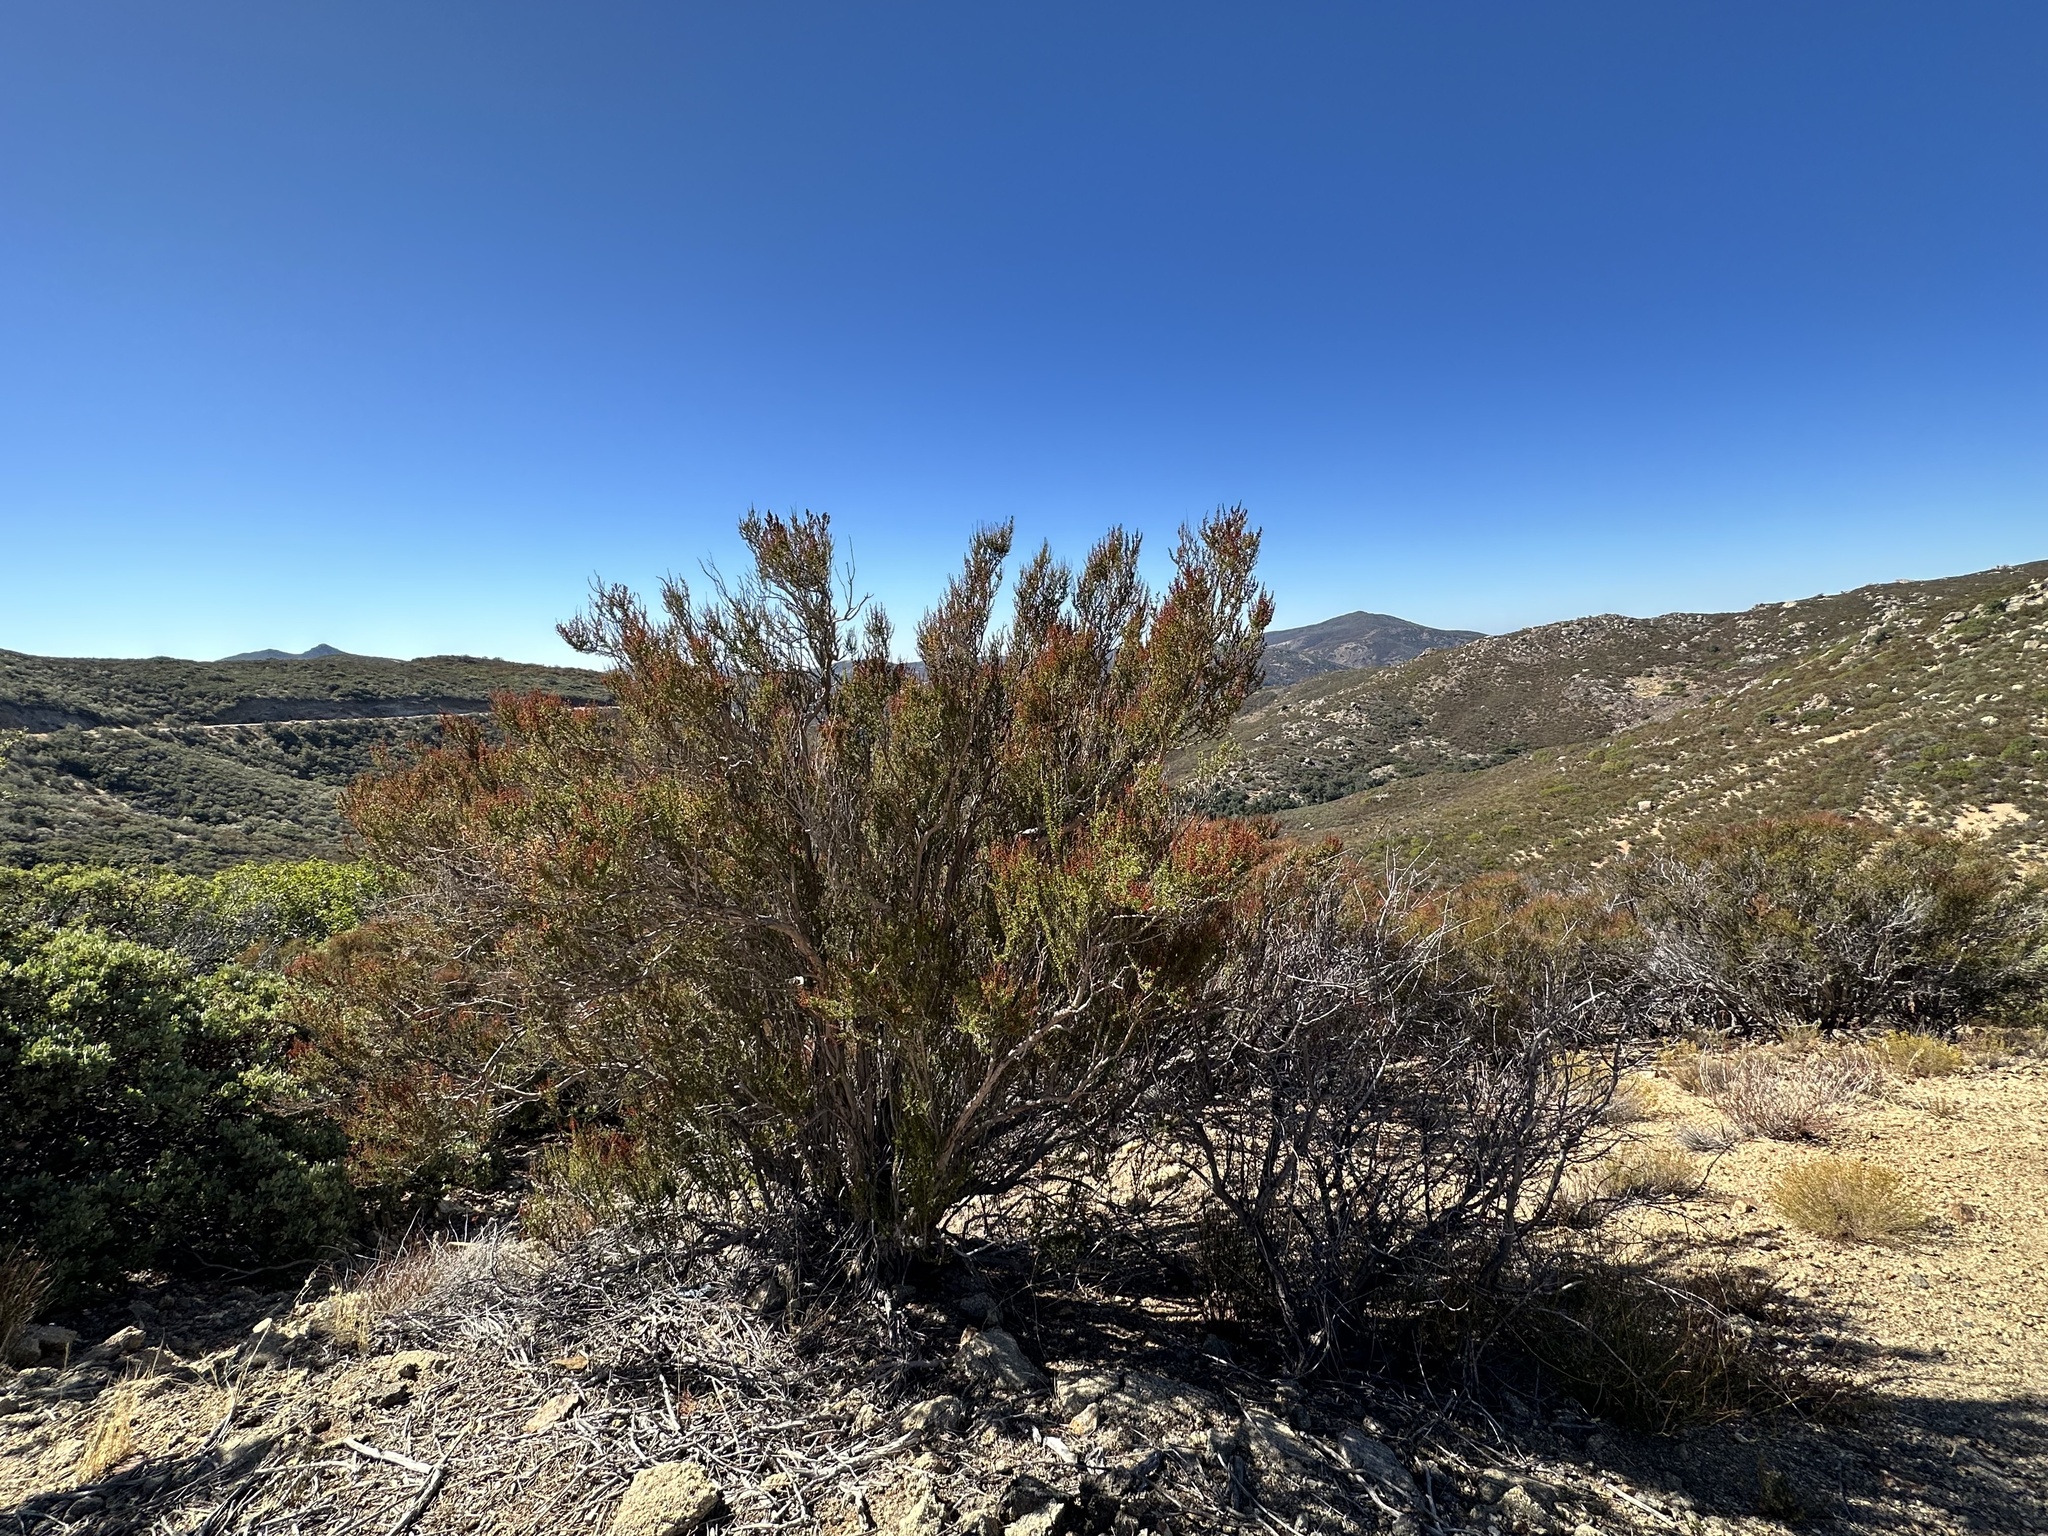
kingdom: Plantae
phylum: Tracheophyta
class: Magnoliopsida
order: Rosales
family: Rosaceae
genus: Adenostoma
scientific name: Adenostoma fasciculatum
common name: Chamise
